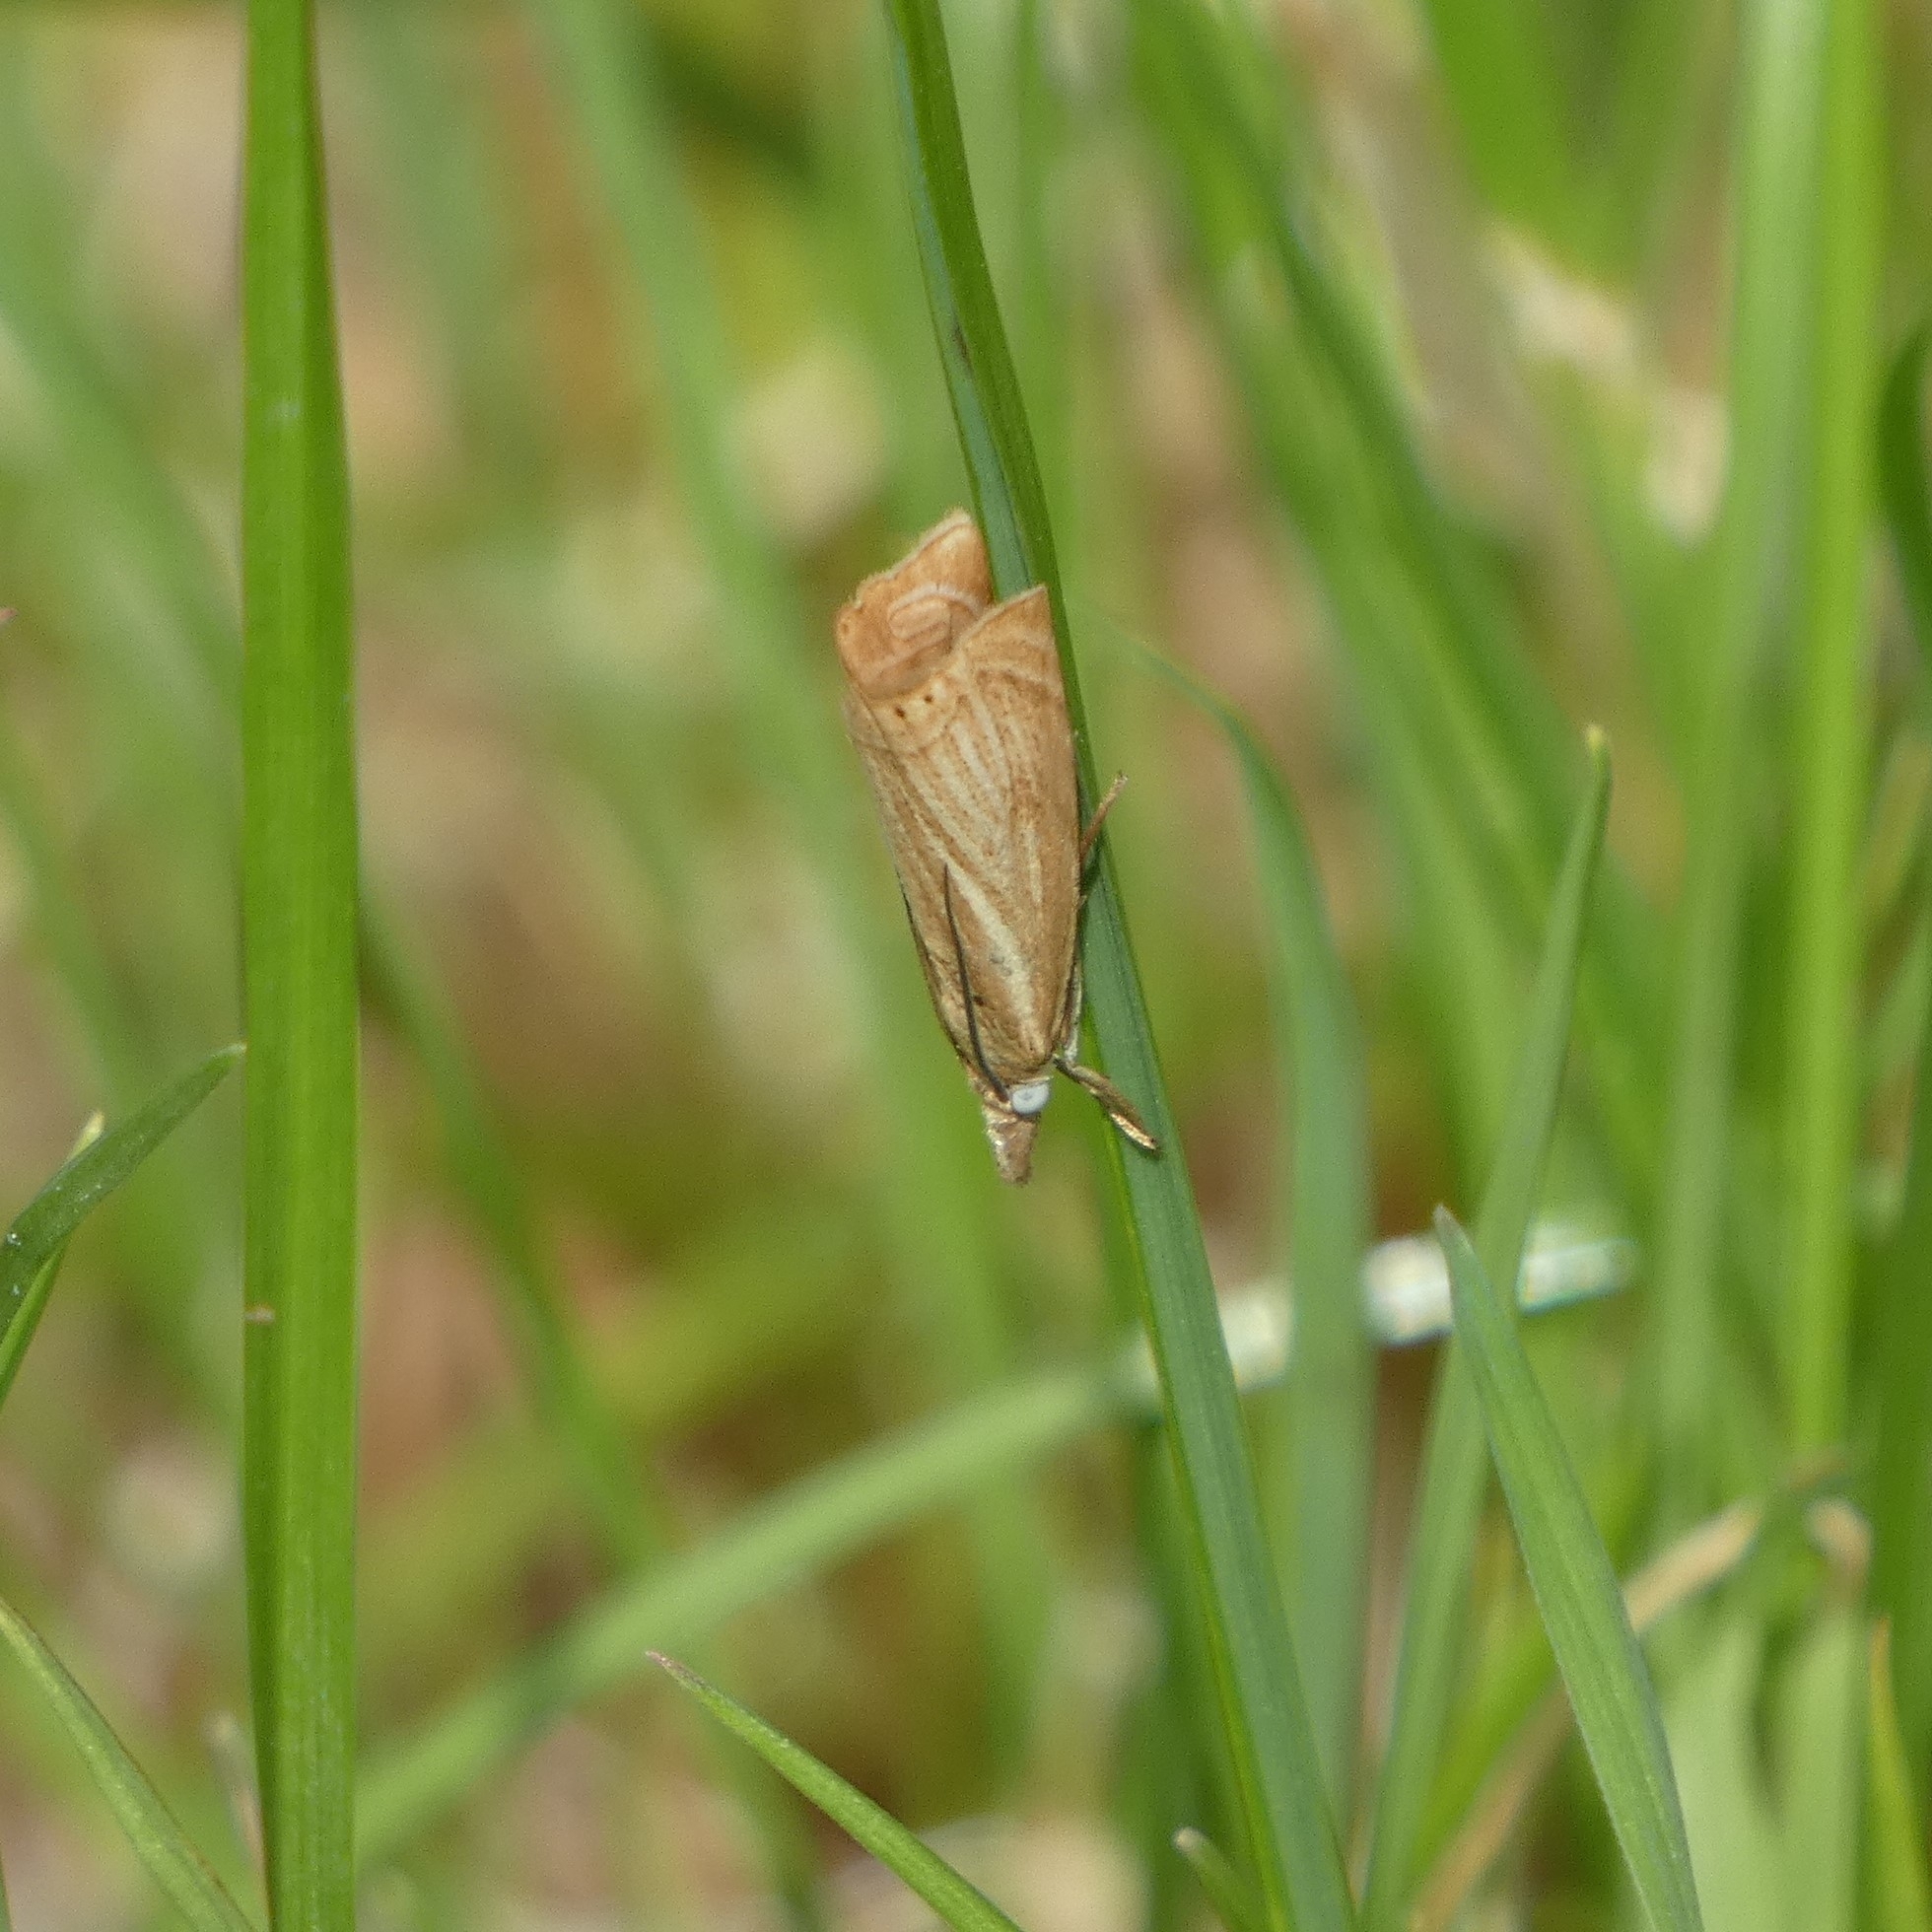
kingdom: Animalia
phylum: Arthropoda
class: Insecta
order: Lepidoptera
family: Crambidae
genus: Chrysoteuchia
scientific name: Chrysoteuchia culmella
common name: Garden grass-veneer
